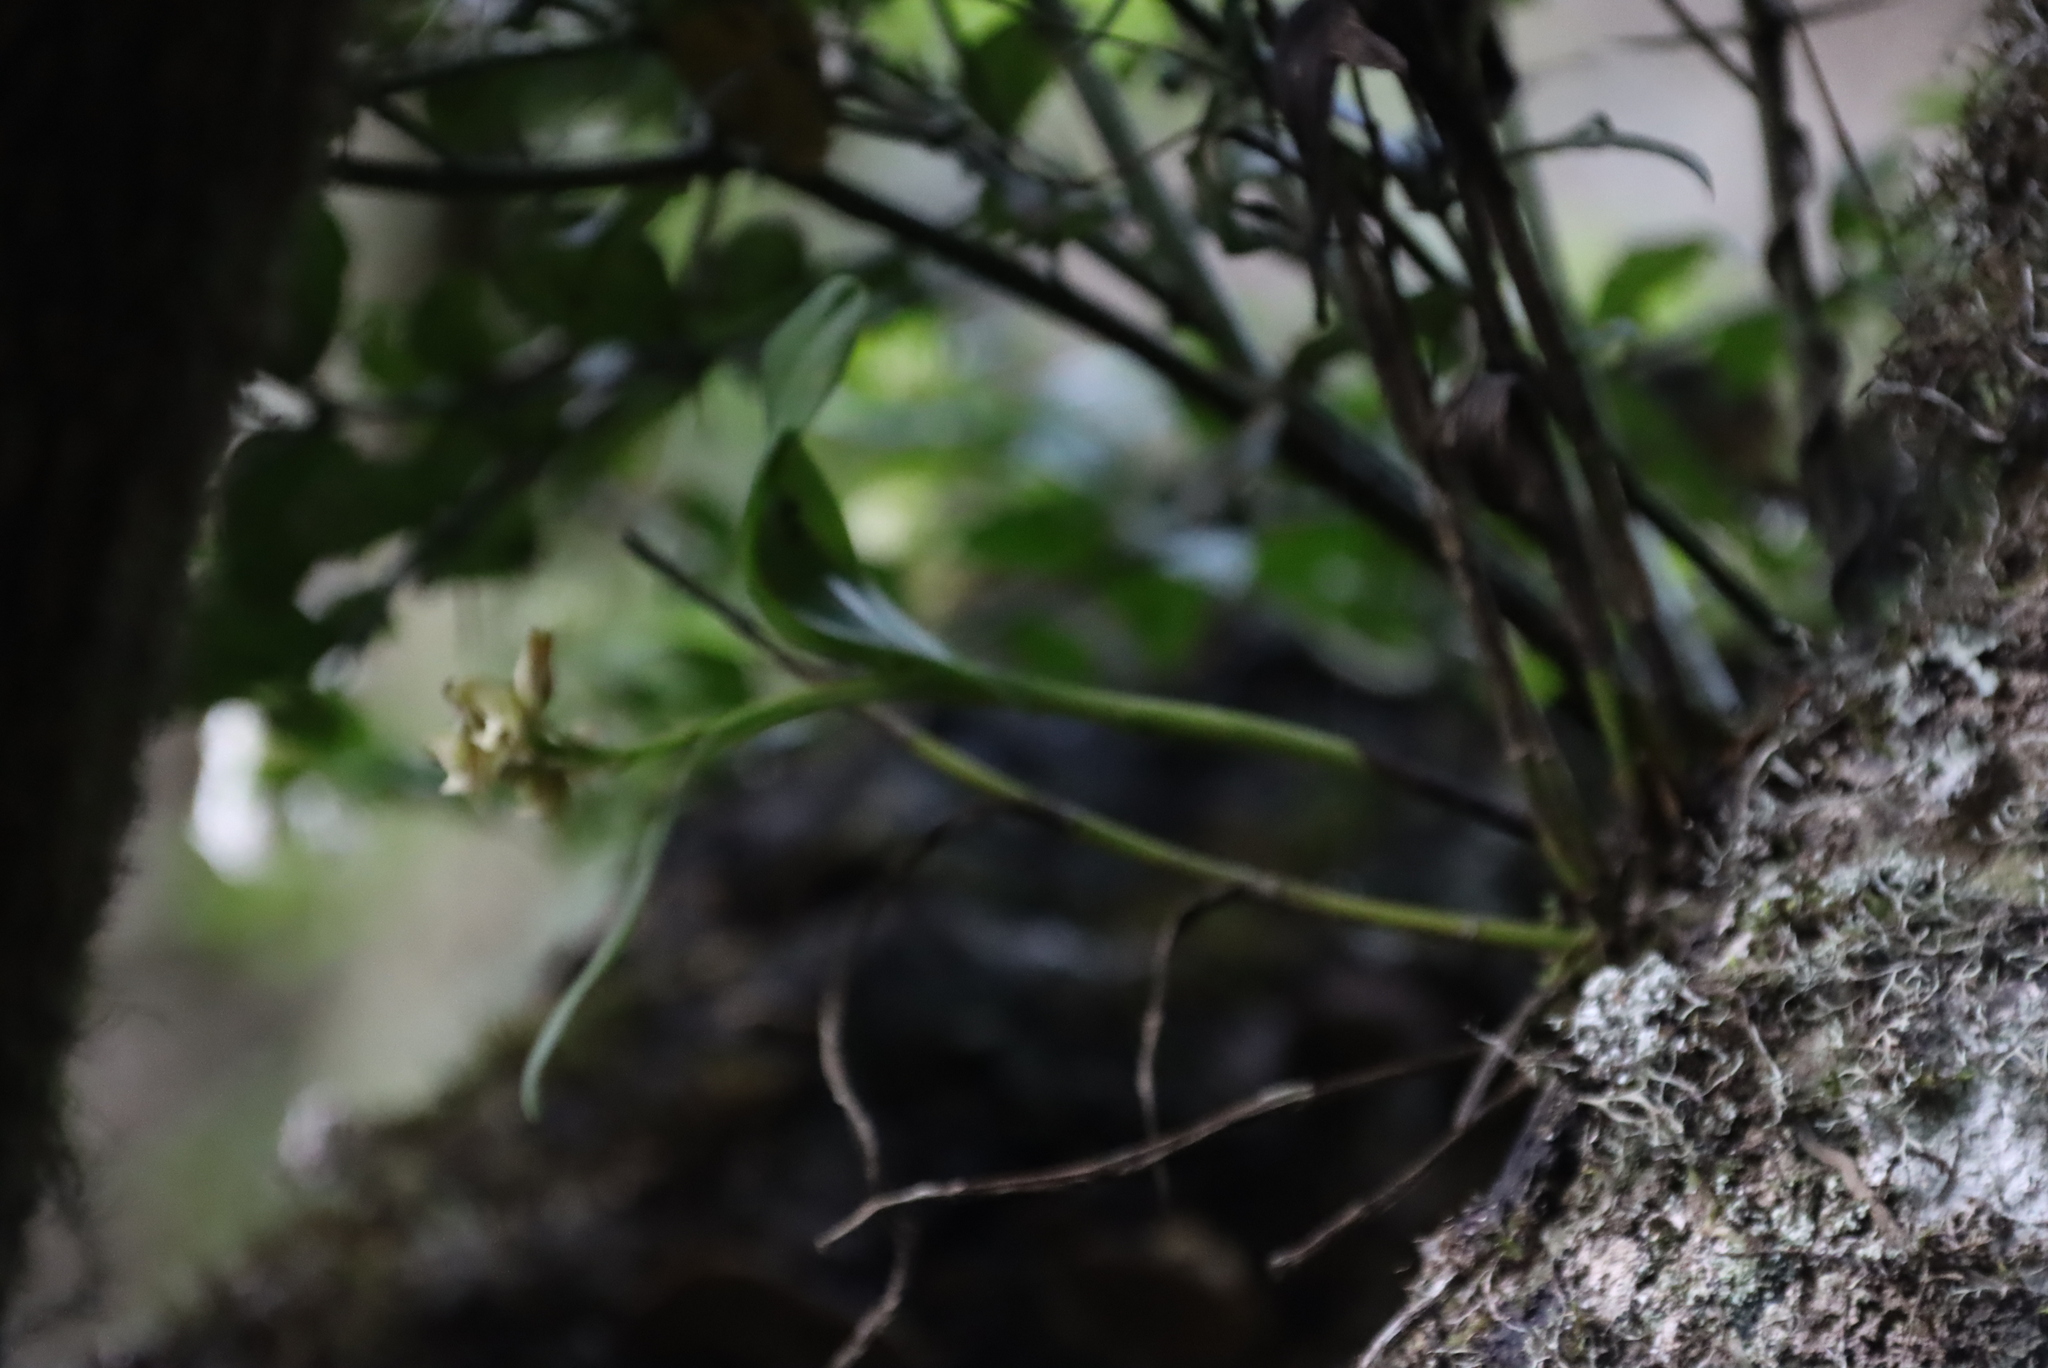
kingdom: Plantae
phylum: Tracheophyta
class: Liliopsida
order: Asparagales
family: Orchidaceae
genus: Polystachya
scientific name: Polystachya transvaalensis
